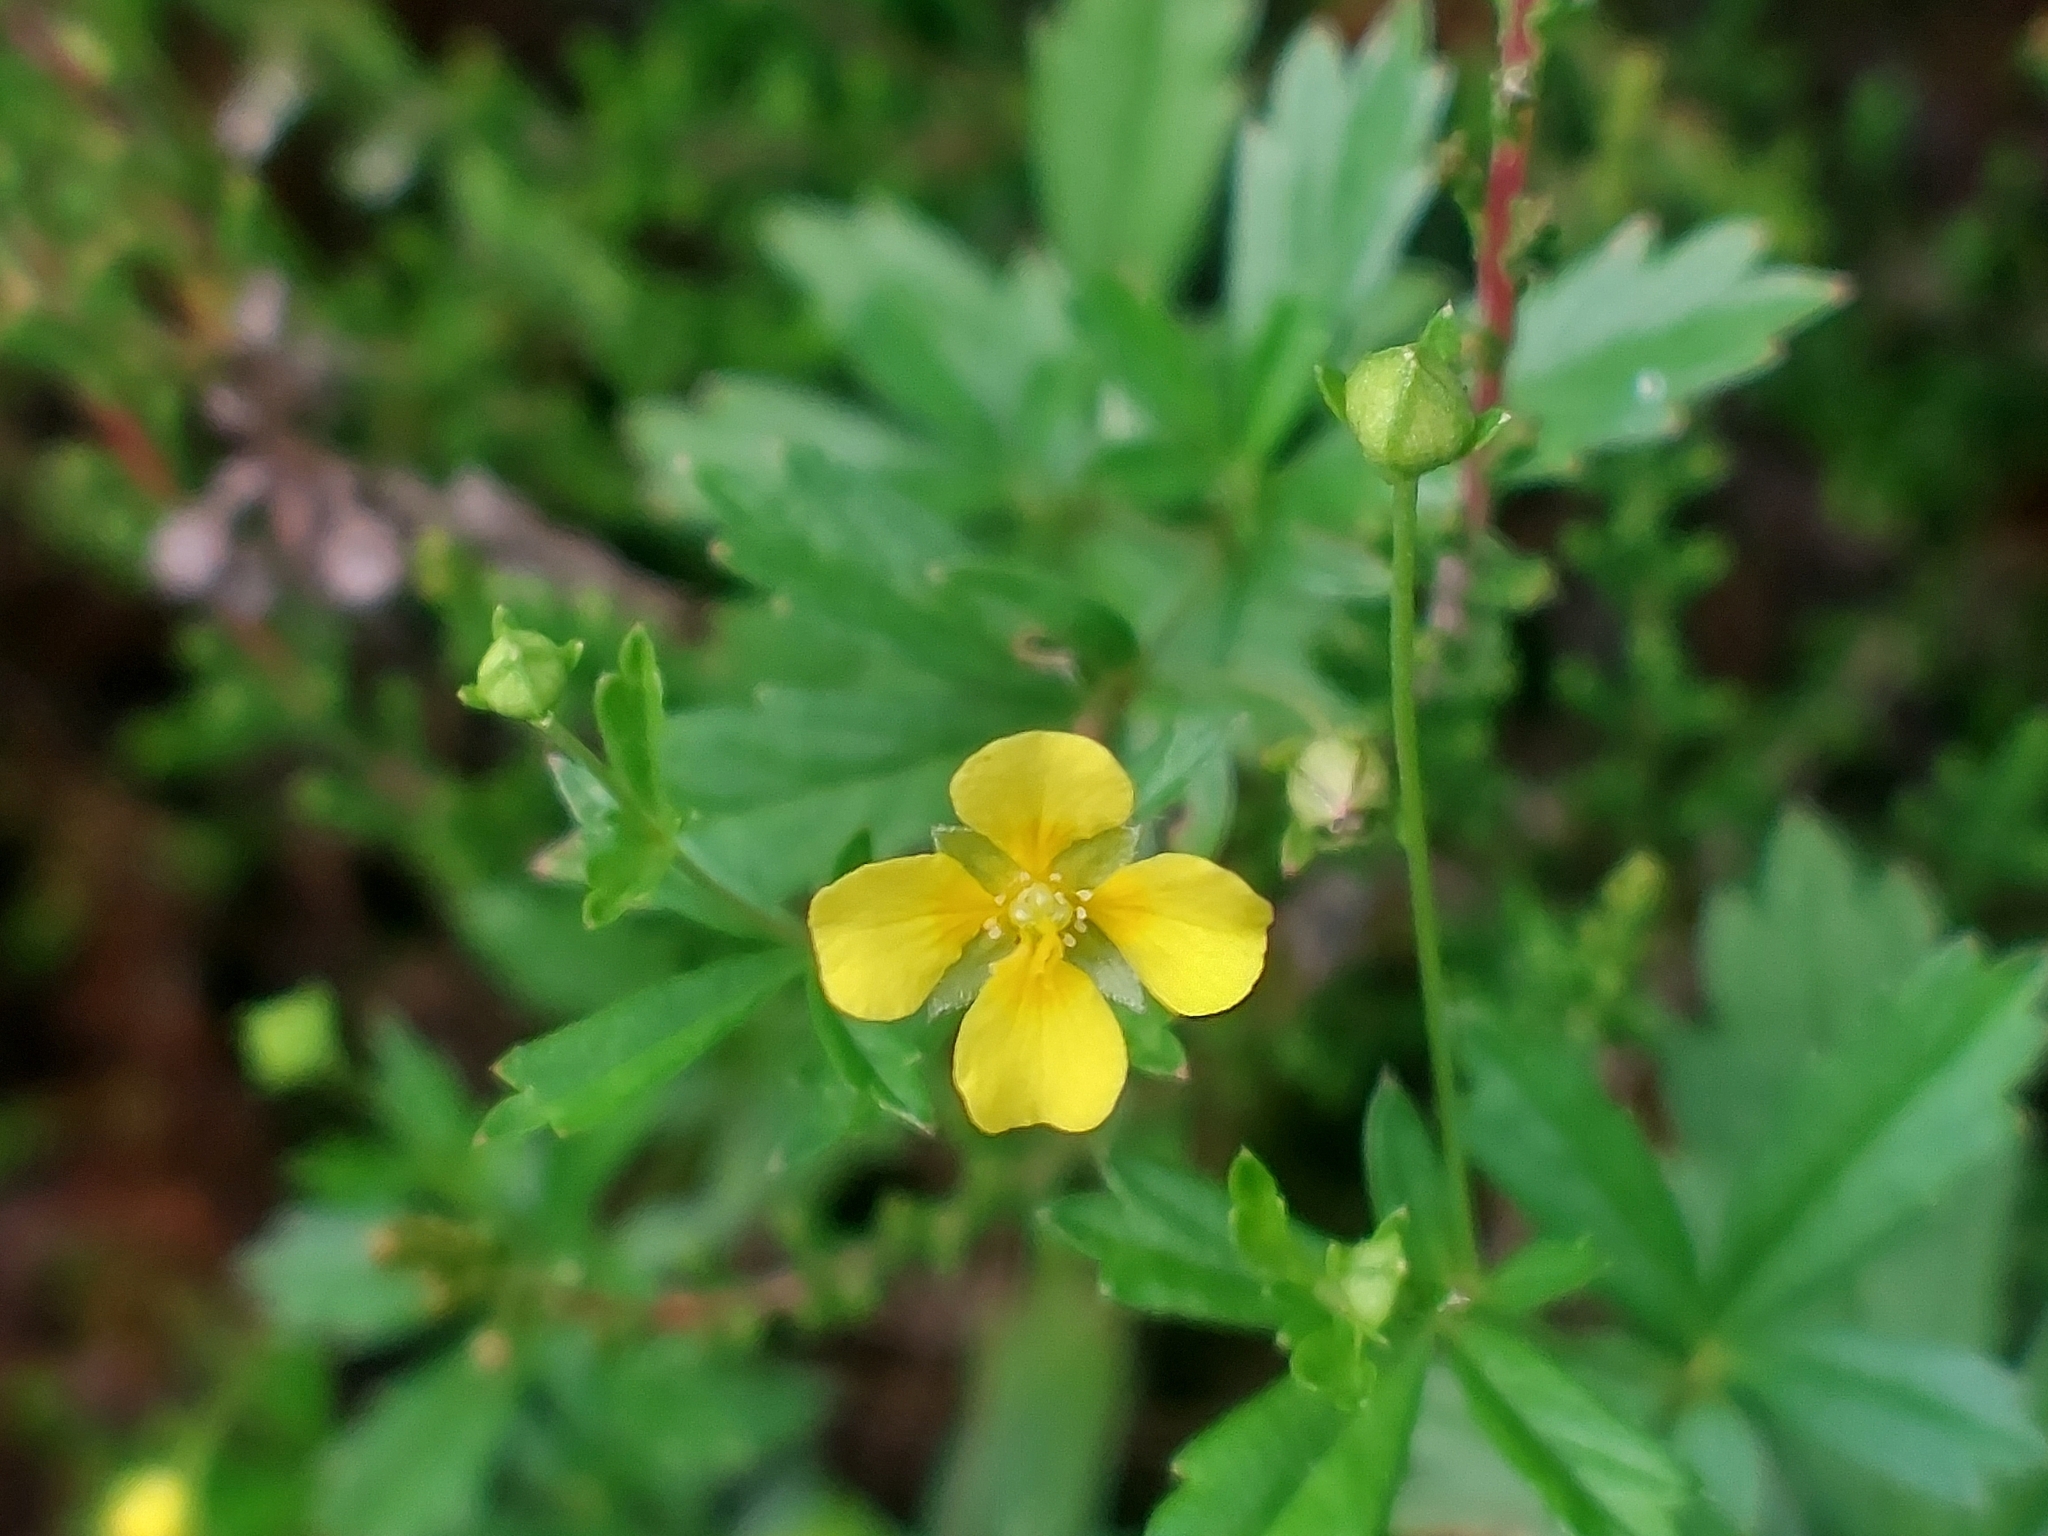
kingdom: Plantae
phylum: Tracheophyta
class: Magnoliopsida
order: Rosales
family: Rosaceae
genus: Potentilla
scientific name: Potentilla erecta
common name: Tormentil
